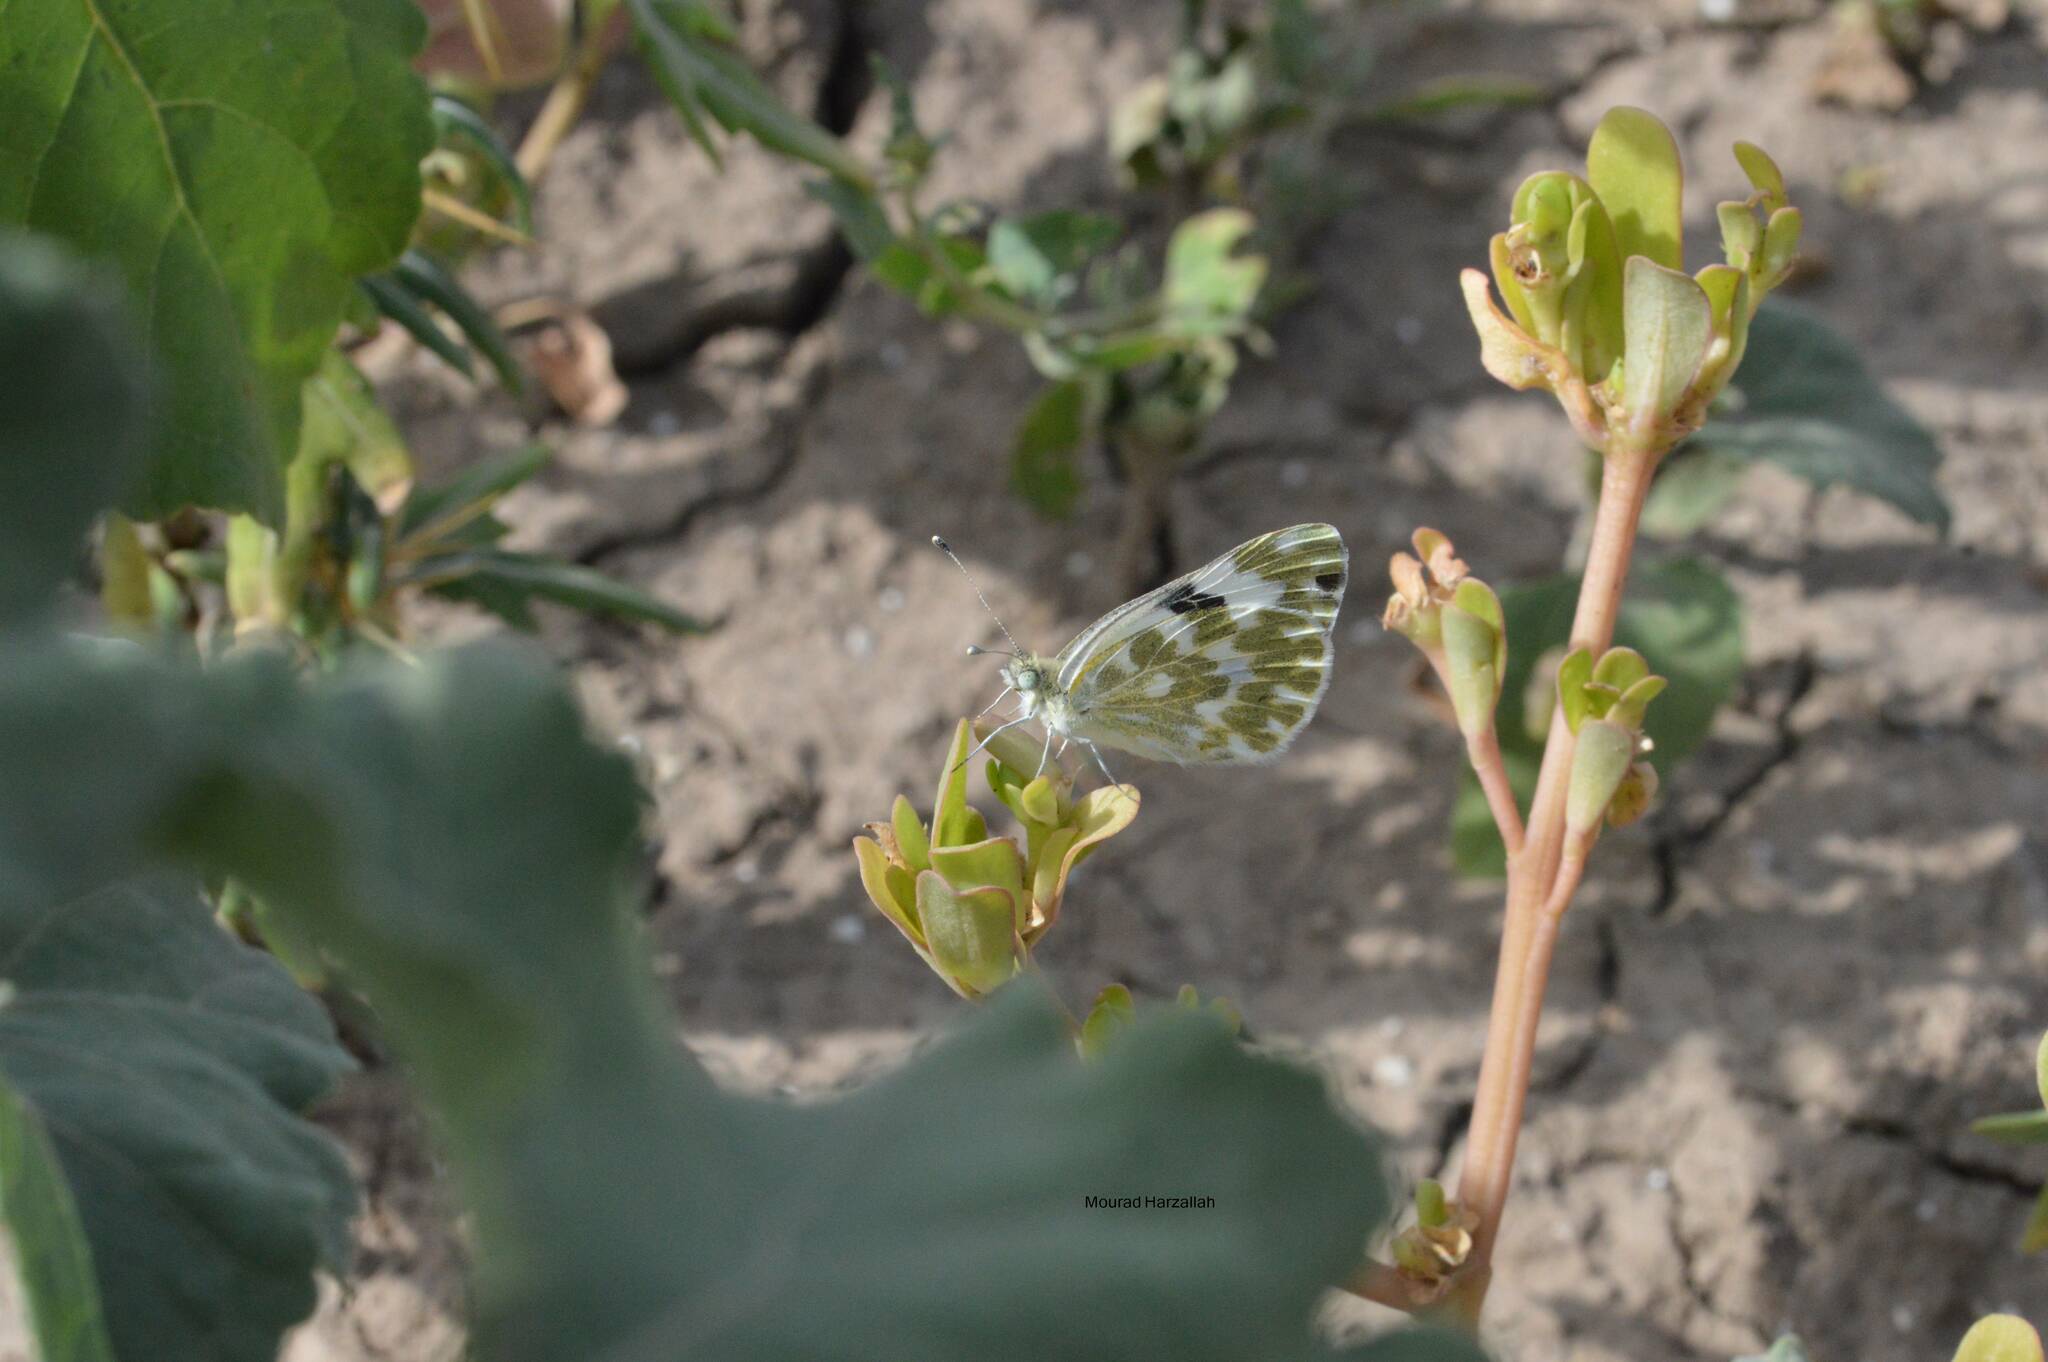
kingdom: Animalia
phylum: Arthropoda
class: Insecta
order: Lepidoptera
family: Pieridae
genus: Pontia
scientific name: Pontia daplidice
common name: Bath white
